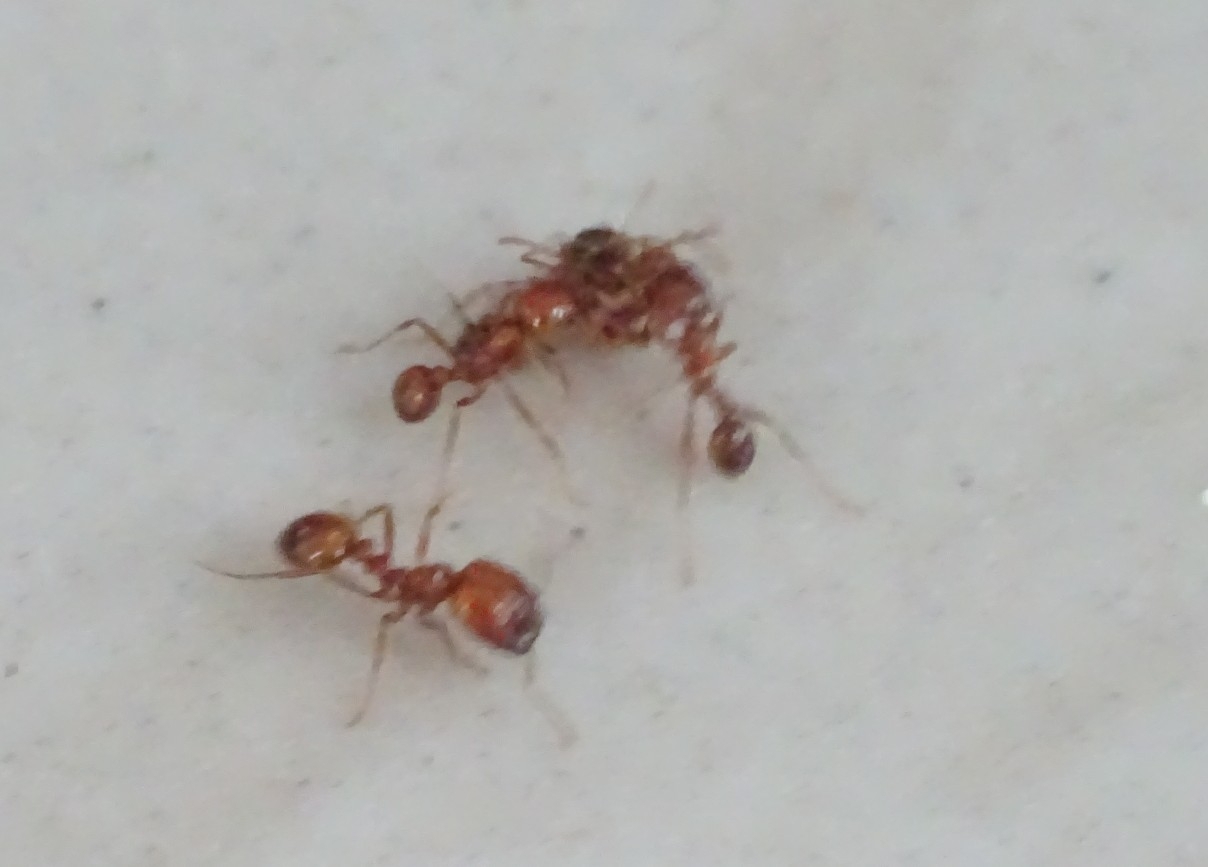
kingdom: Animalia
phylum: Arthropoda
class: Insecta
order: Hymenoptera
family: Formicidae
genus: Solenopsis
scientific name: Solenopsis geminata
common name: Tropical fire ant
